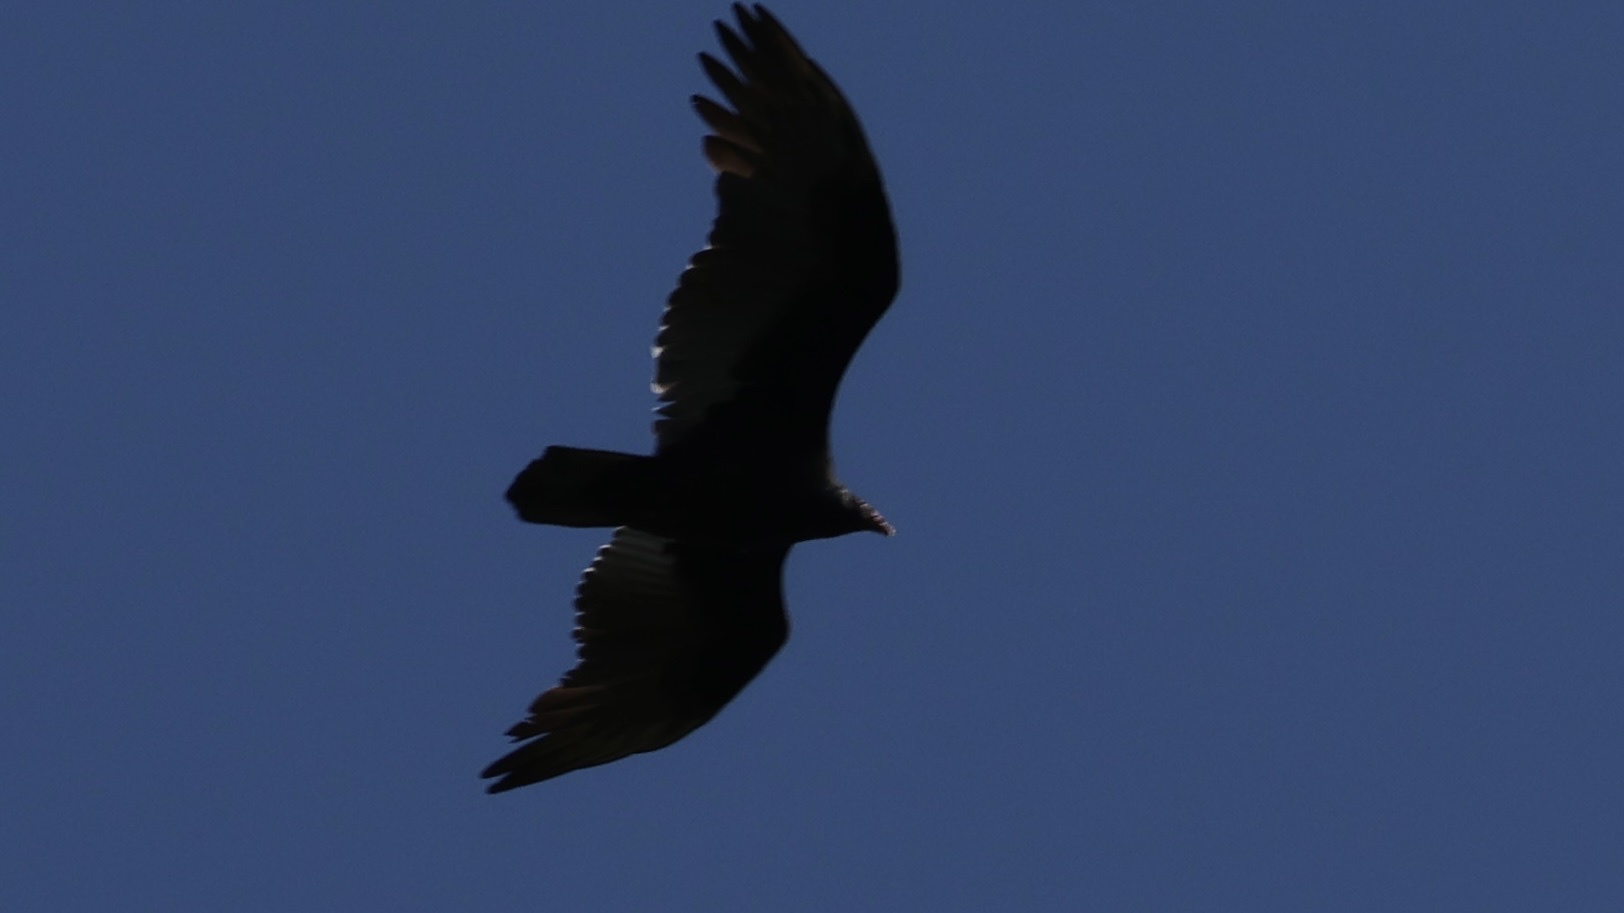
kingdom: Animalia
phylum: Chordata
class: Aves
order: Accipitriformes
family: Cathartidae
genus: Cathartes
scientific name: Cathartes aura
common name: Turkey vulture
